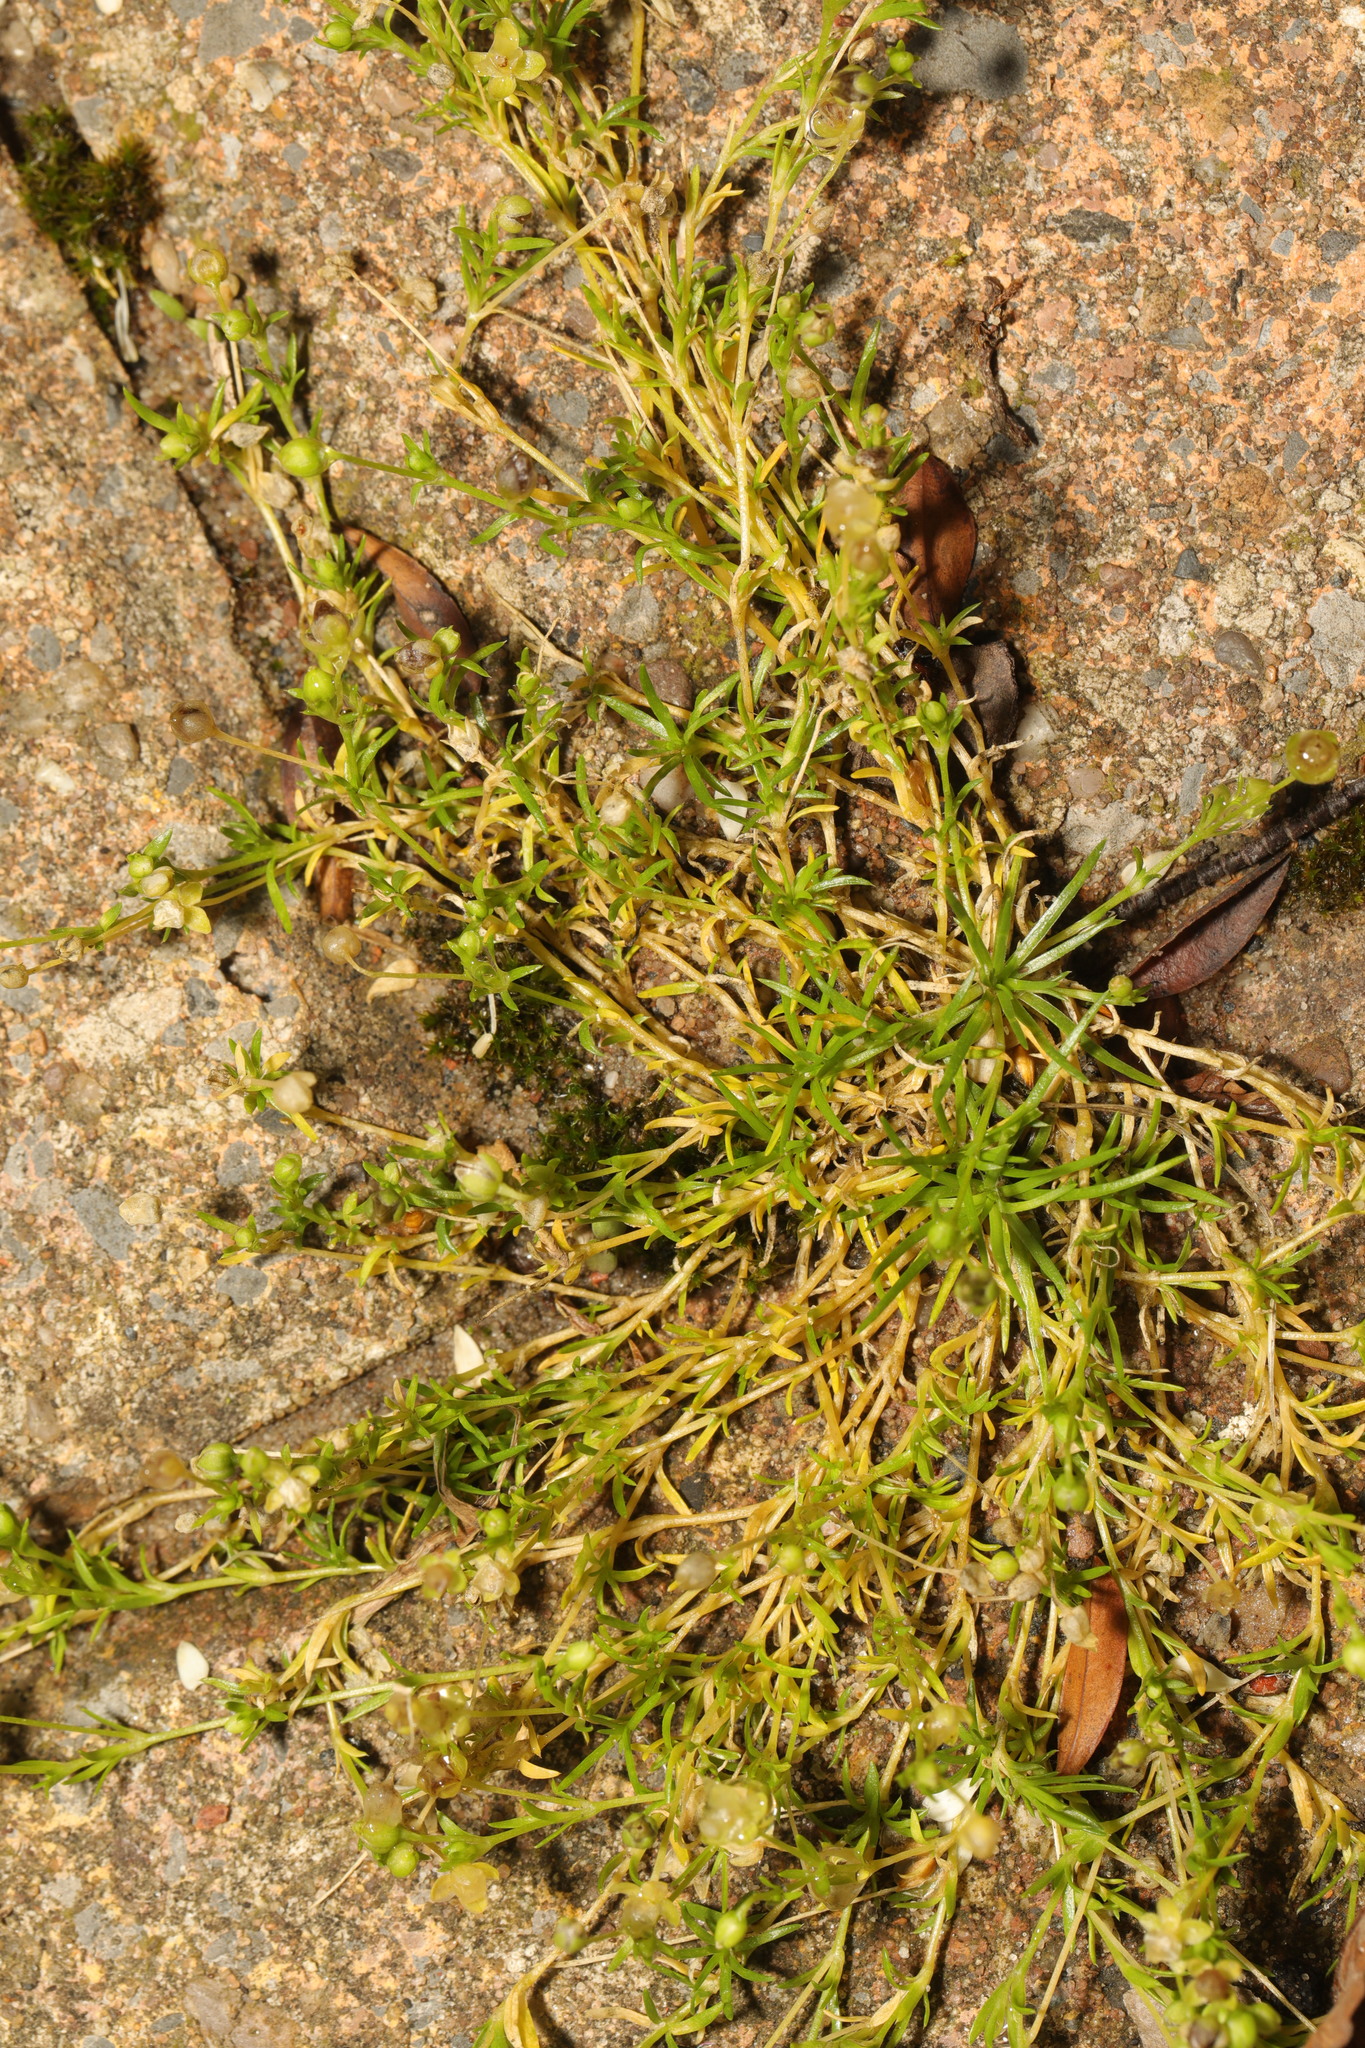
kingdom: Plantae
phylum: Tracheophyta
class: Magnoliopsida
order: Caryophyllales
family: Caryophyllaceae
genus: Sagina
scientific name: Sagina procumbens
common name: Procumbent pearlwort
